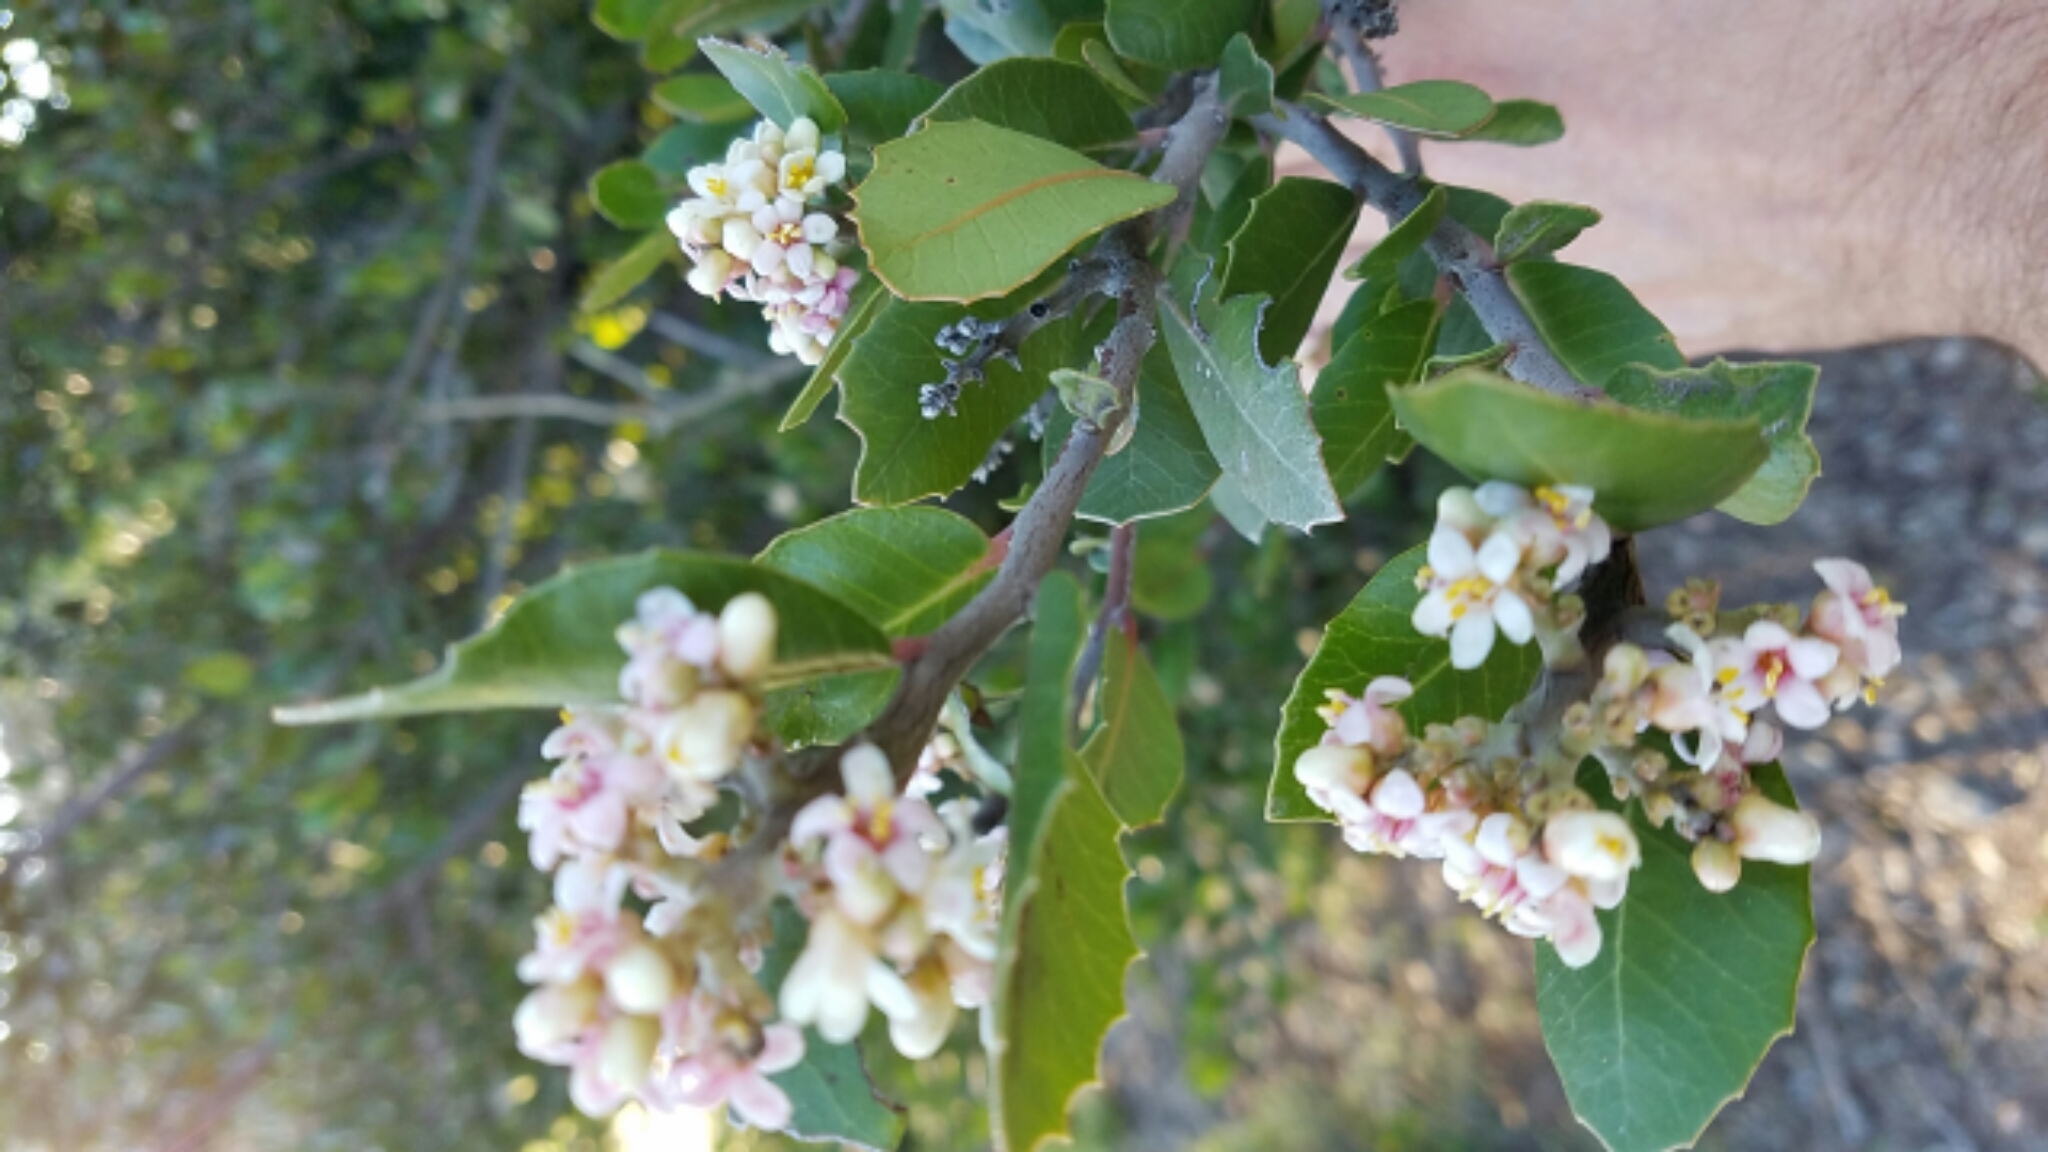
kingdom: Plantae
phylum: Tracheophyta
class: Magnoliopsida
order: Sapindales
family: Anacardiaceae
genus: Rhus
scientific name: Rhus integrifolia
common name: Lemonade sumac
